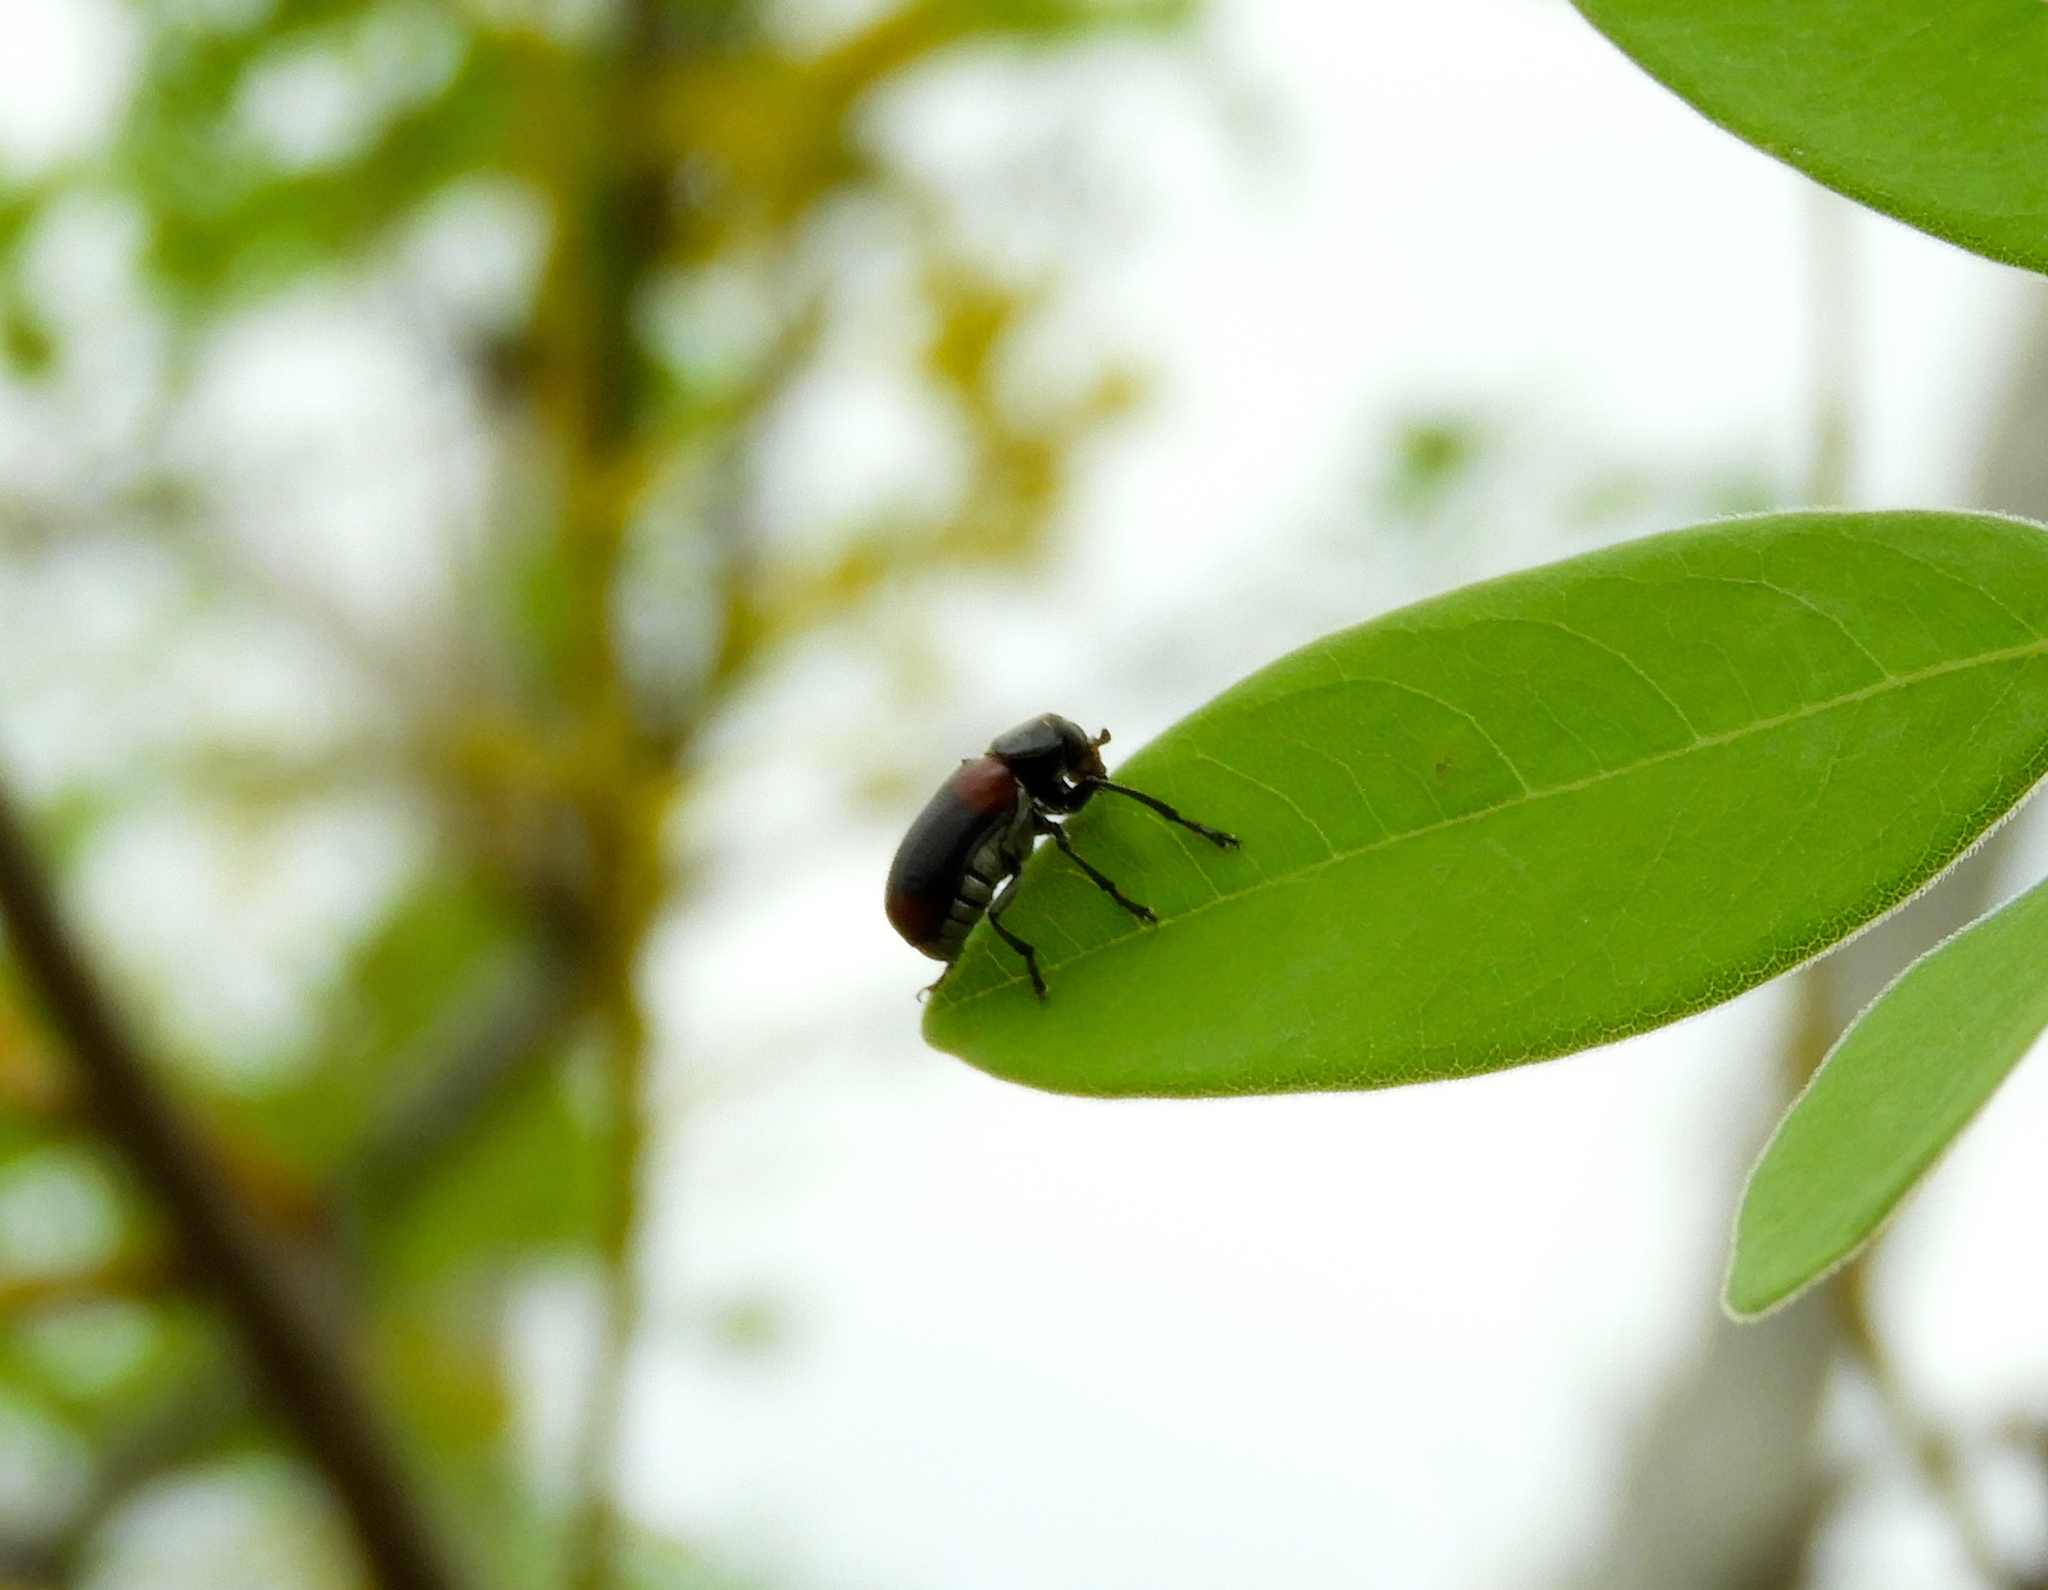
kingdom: Animalia
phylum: Arthropoda
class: Insecta
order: Coleoptera
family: Chrysomelidae
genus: Anomoea
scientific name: Anomoea rufifrons
